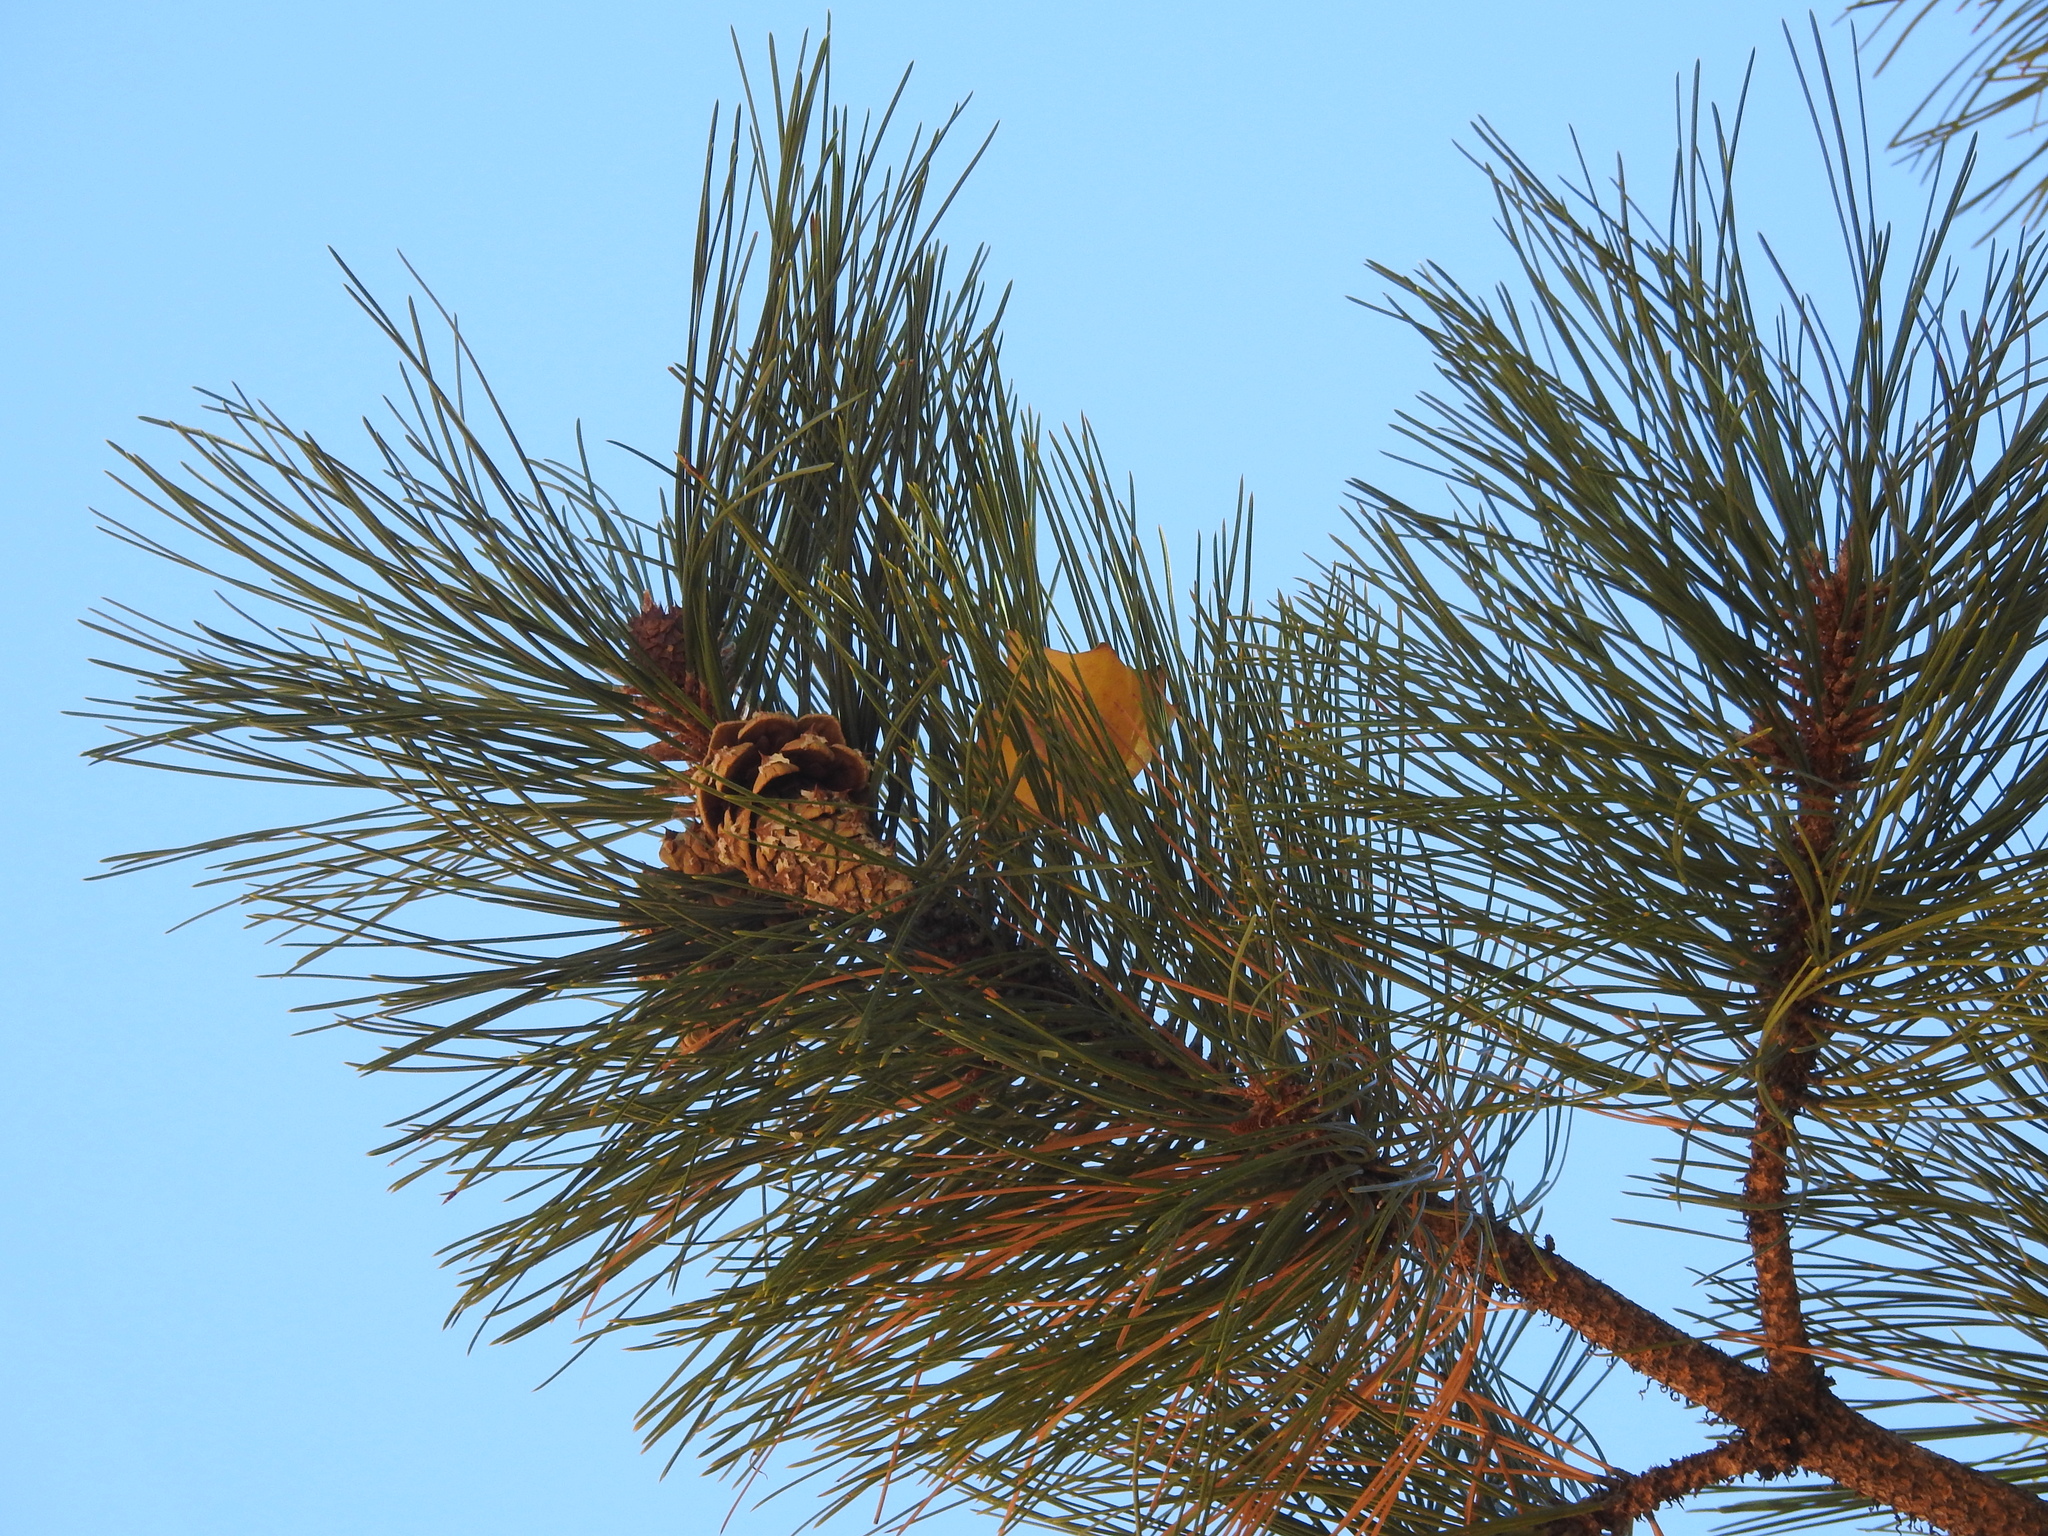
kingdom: Plantae
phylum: Tracheophyta
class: Pinopsida
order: Pinales
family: Pinaceae
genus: Pinus
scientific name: Pinus ponderosa
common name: Western yellow-pine
